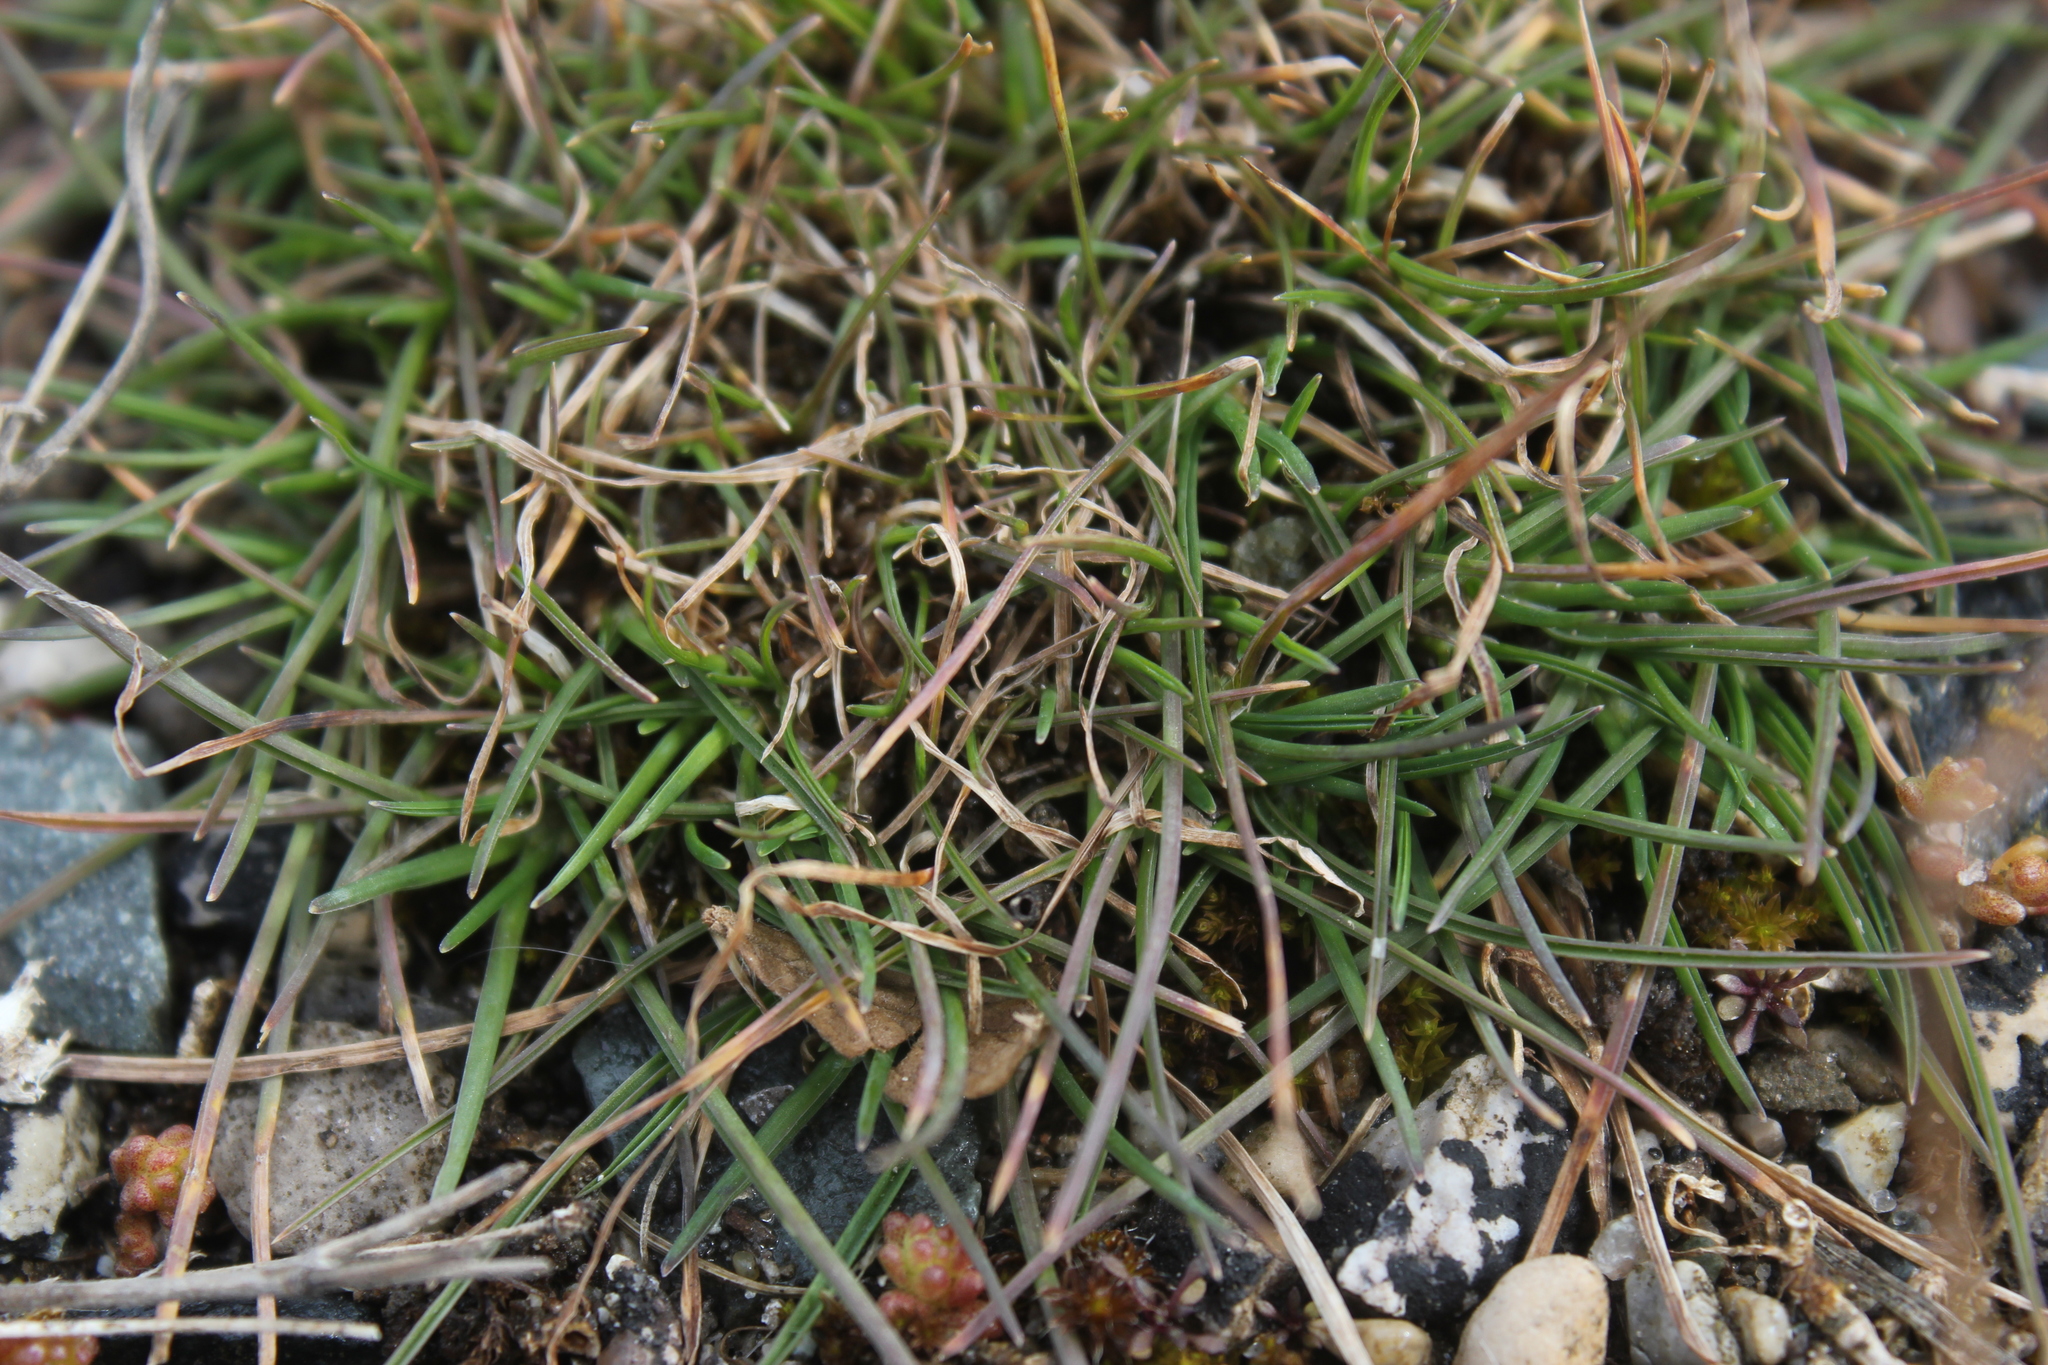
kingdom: Plantae
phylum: Tracheophyta
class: Liliopsida
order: Poales
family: Poaceae
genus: Danthonia
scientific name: Danthonia spicata
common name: Common wild oatgrass
